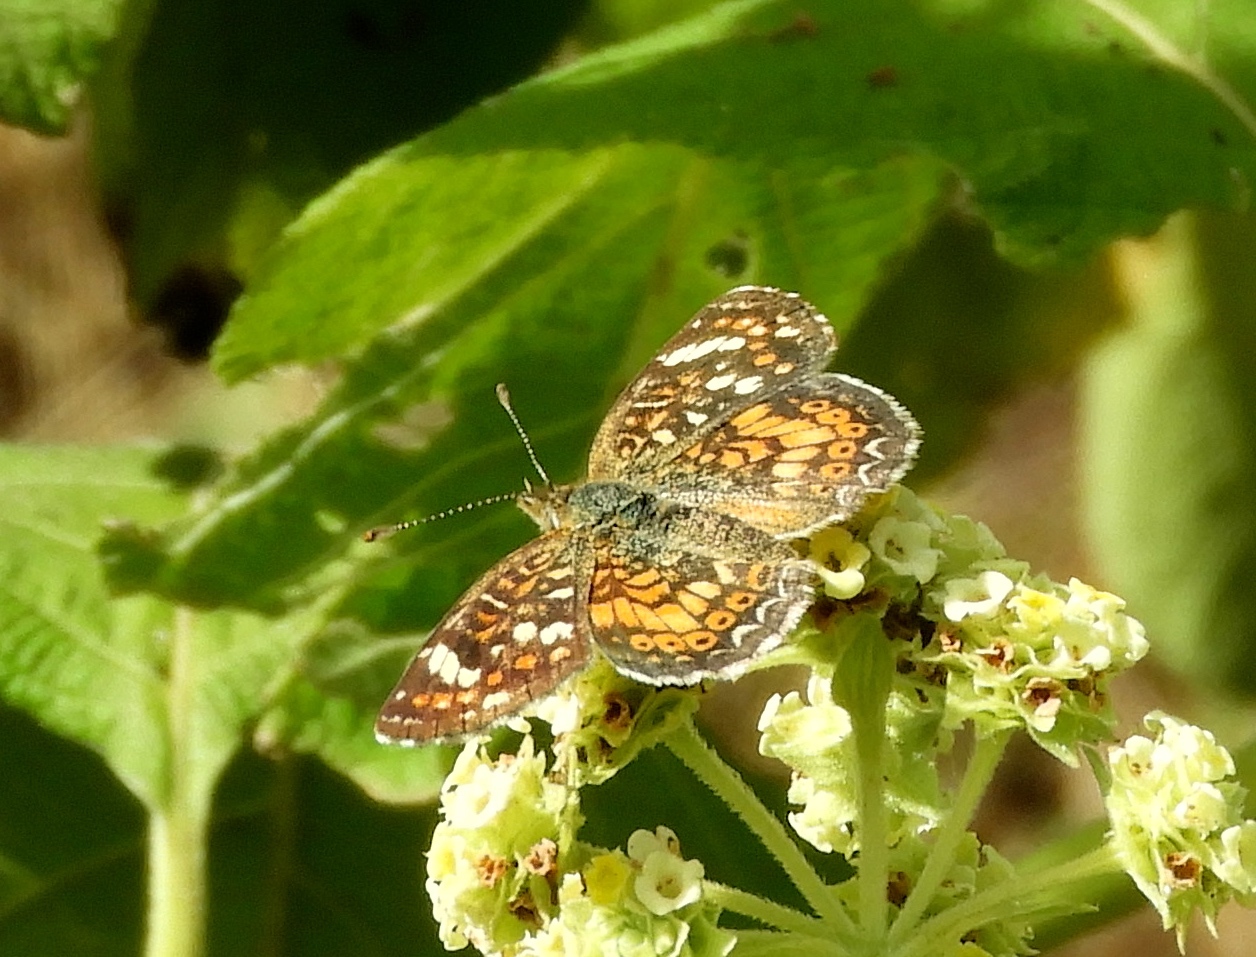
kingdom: Animalia
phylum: Arthropoda
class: Insecta
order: Lepidoptera
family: Nymphalidae
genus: Phyciodes
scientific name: Phyciodes picta
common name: Painted crescent
